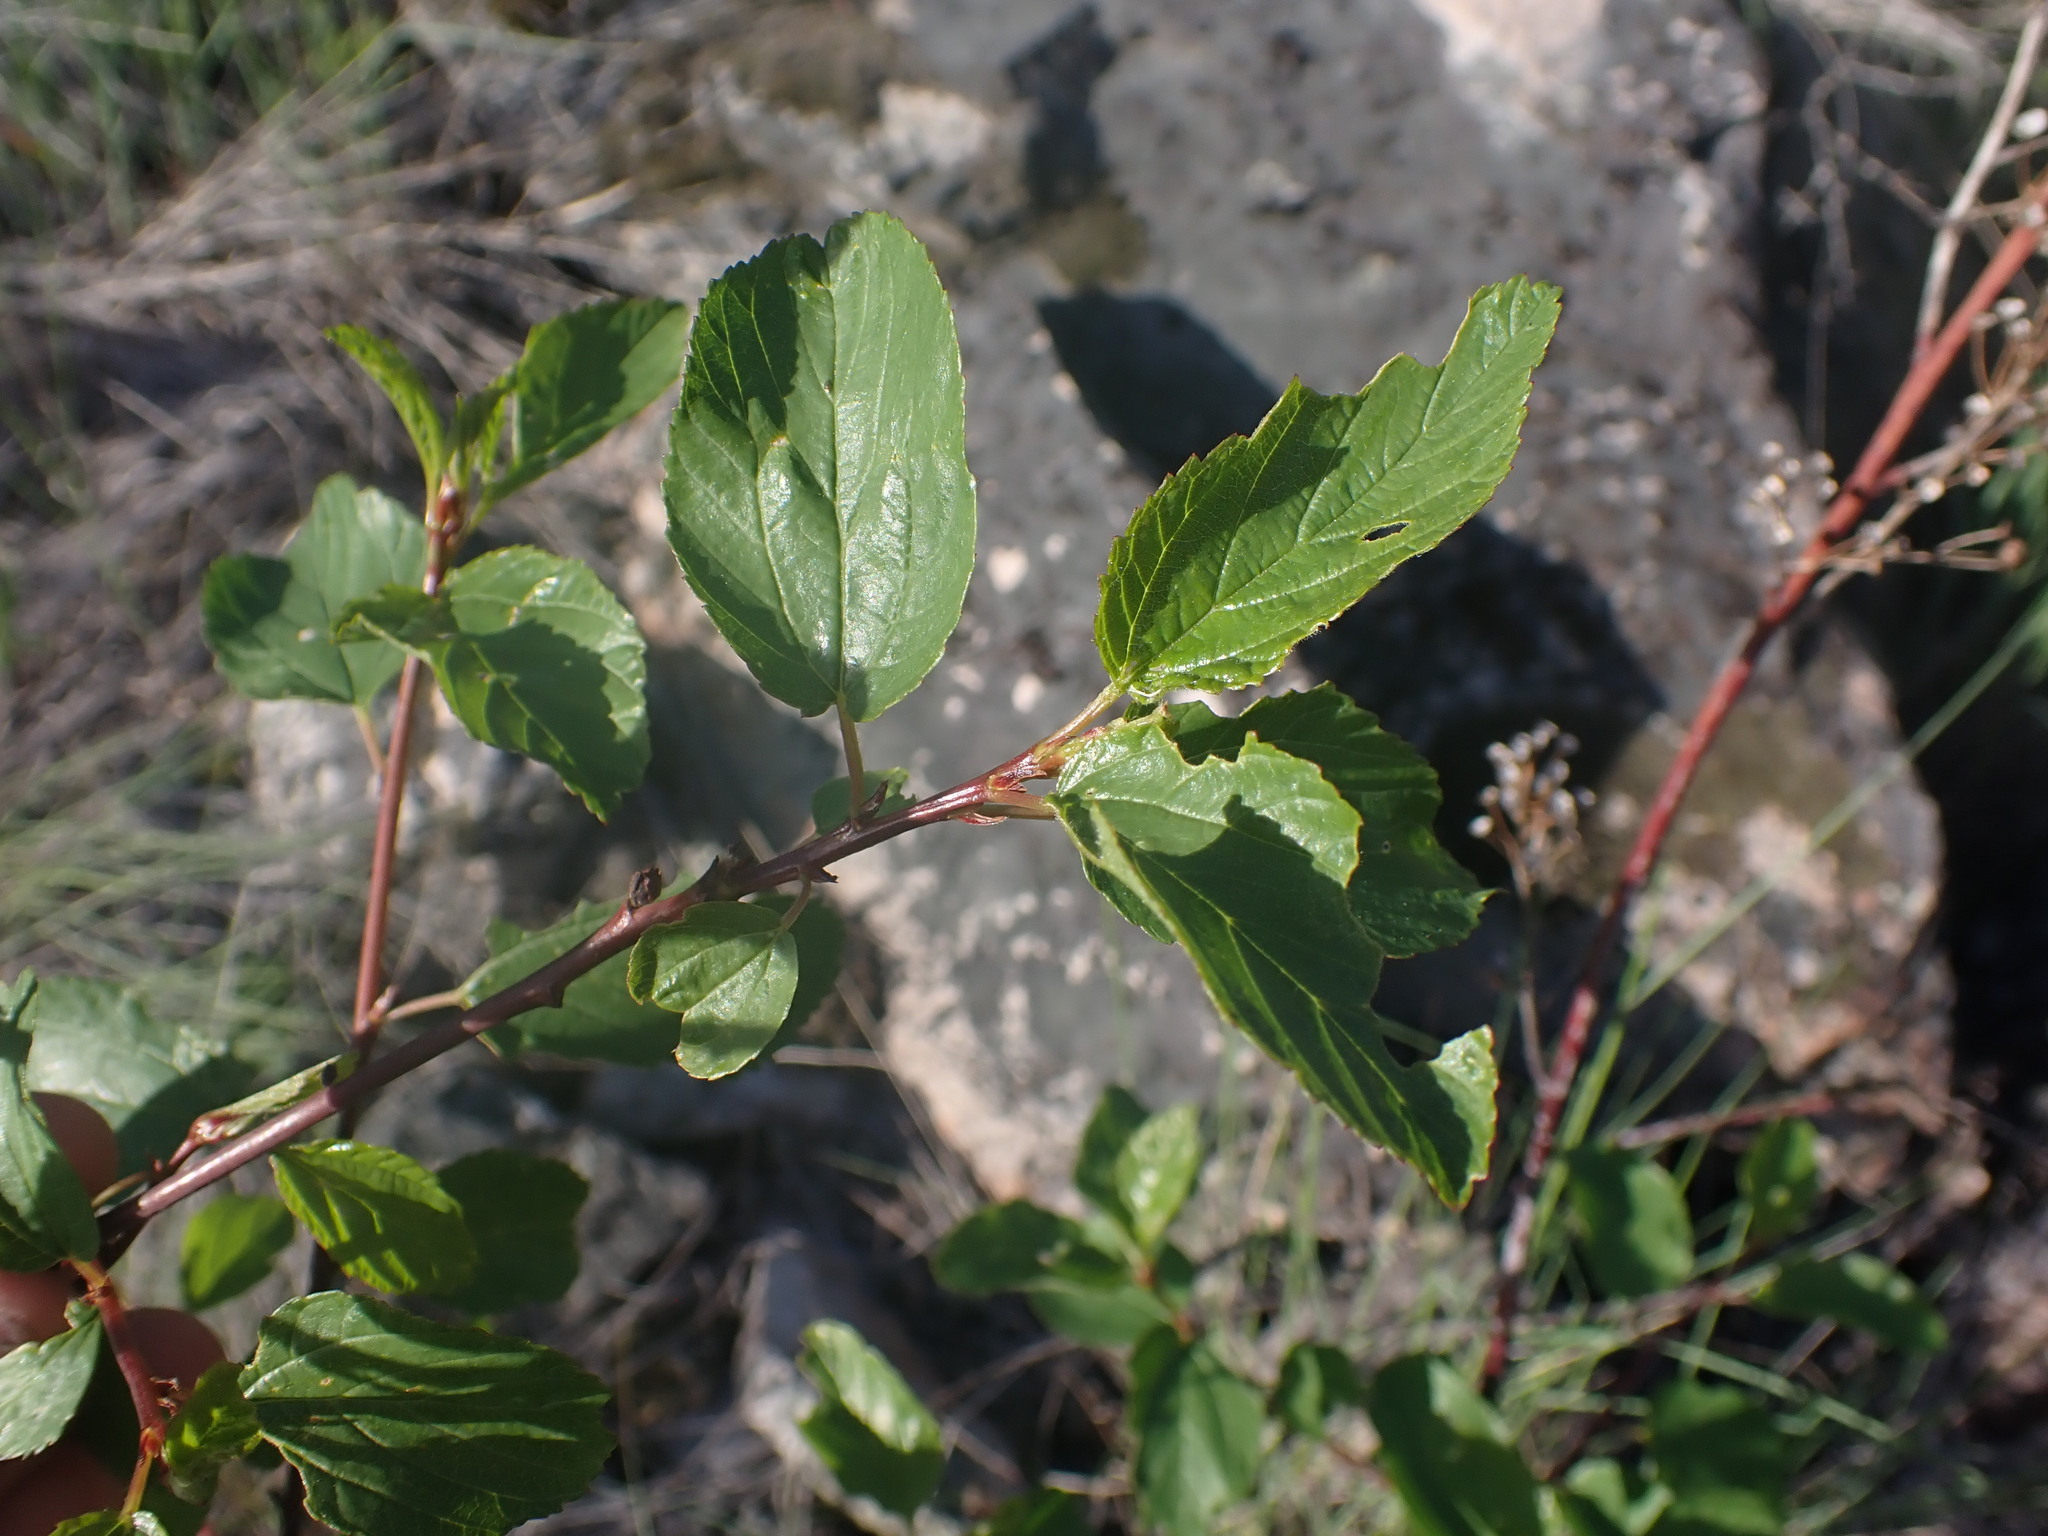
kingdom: Plantae
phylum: Tracheophyta
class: Magnoliopsida
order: Rosales
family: Rhamnaceae
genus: Ceanothus
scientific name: Ceanothus sanguineus
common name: Teatree
